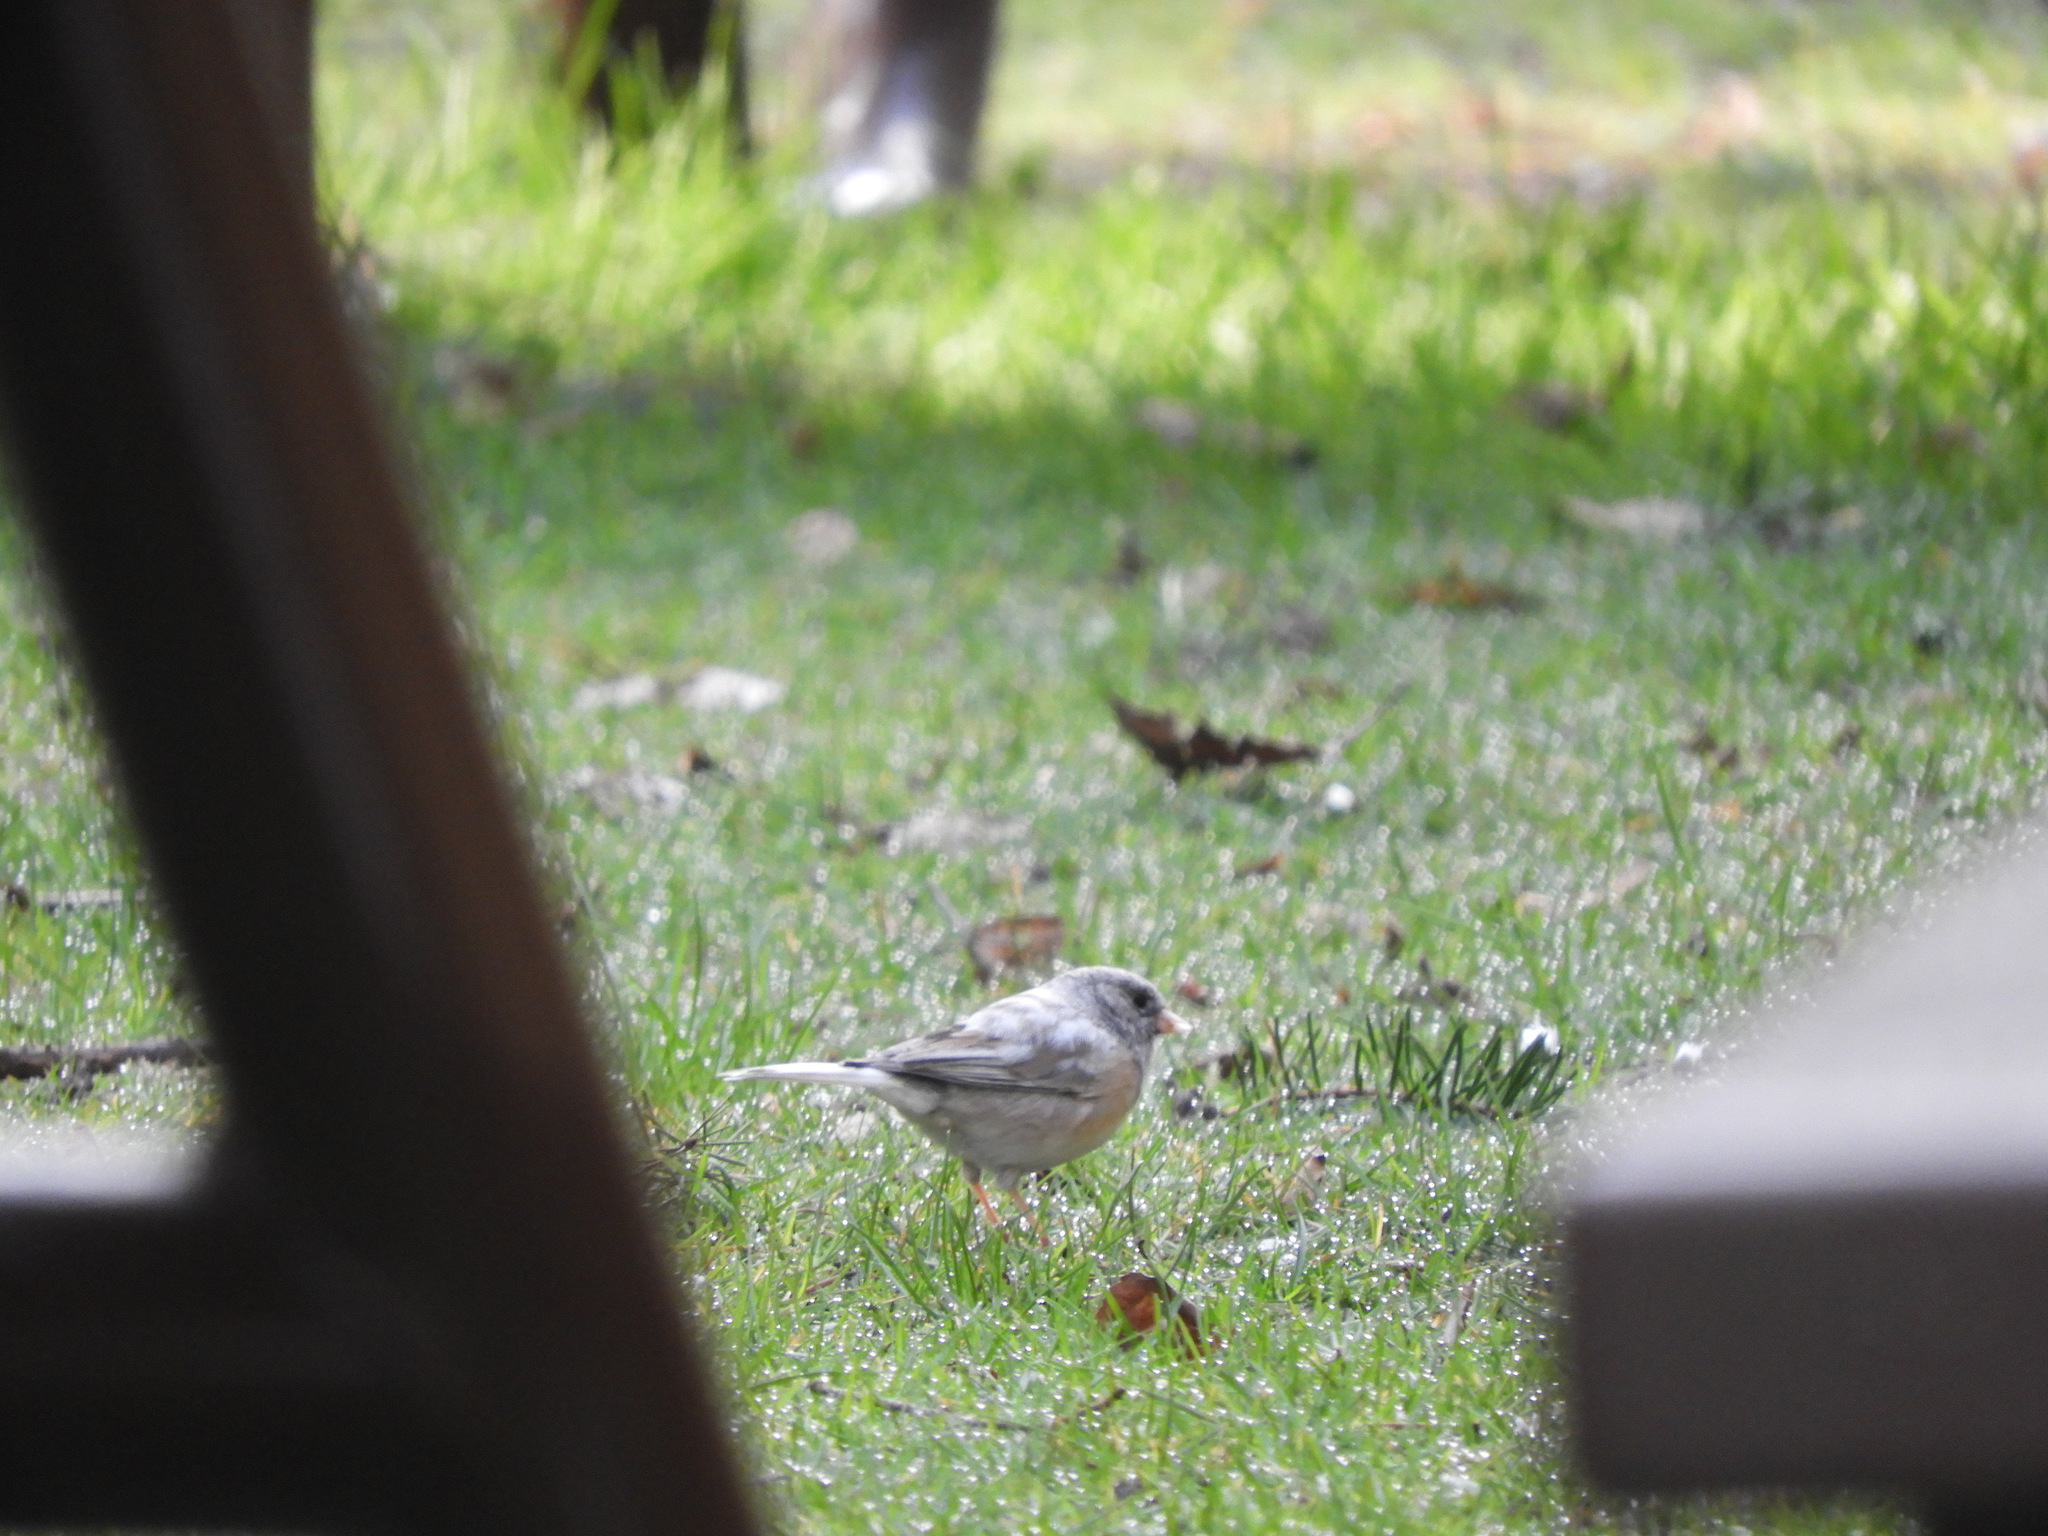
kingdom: Animalia
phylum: Chordata
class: Aves
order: Passeriformes
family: Passerellidae
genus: Junco
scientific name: Junco hyemalis
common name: Dark-eyed junco
